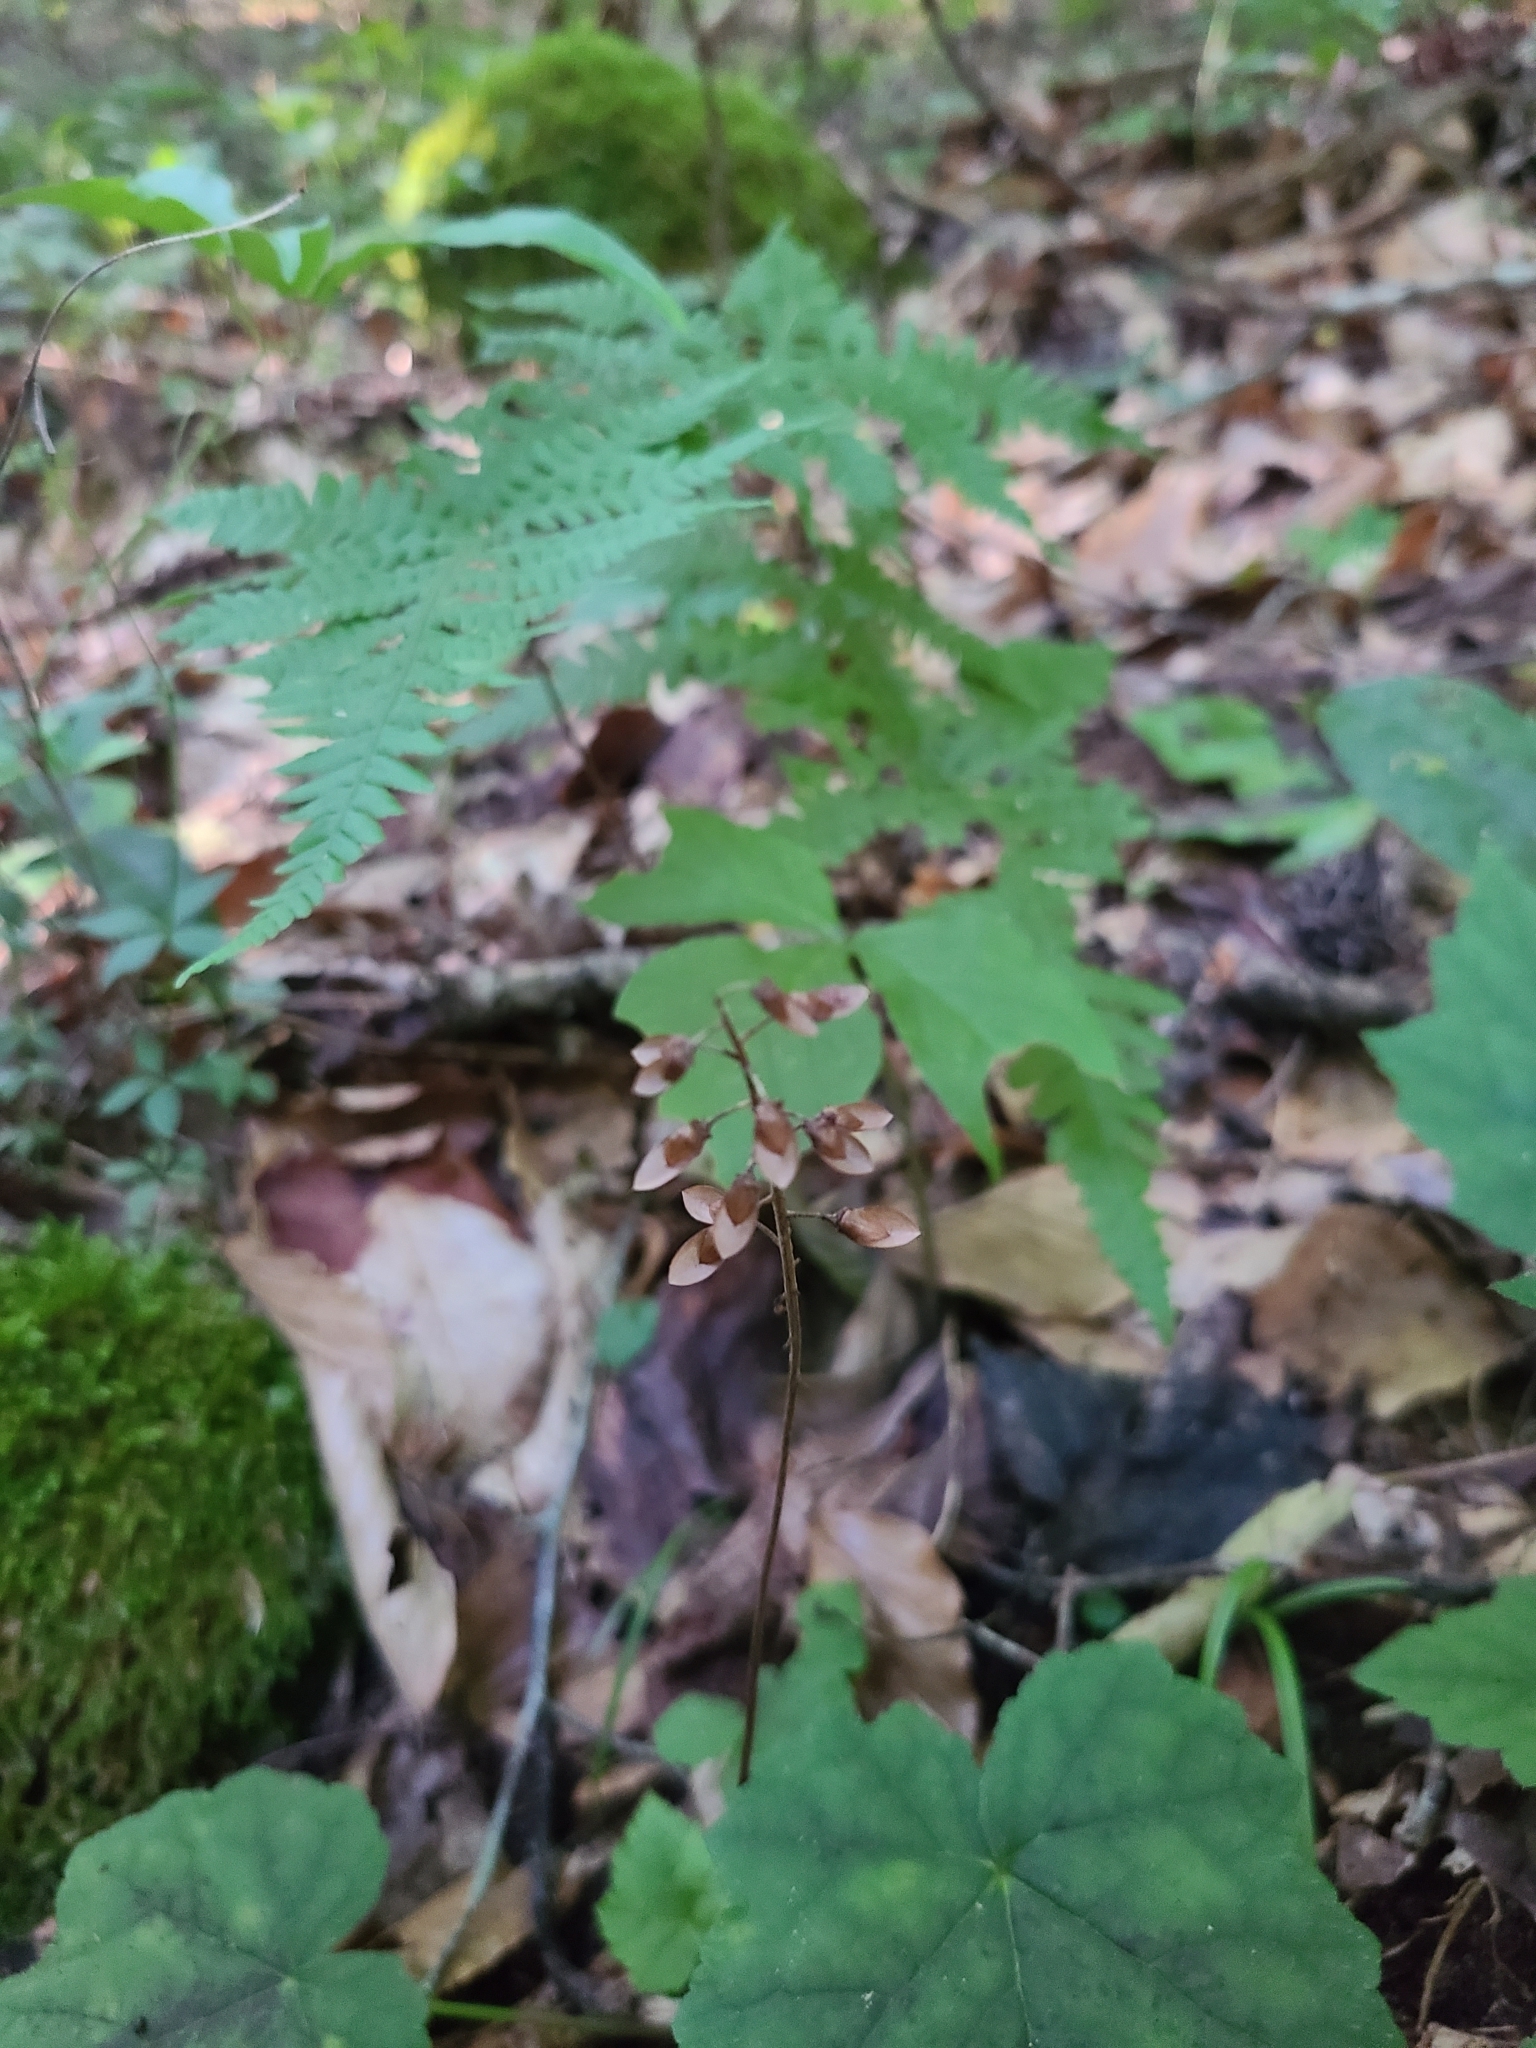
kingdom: Plantae
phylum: Tracheophyta
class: Magnoliopsida
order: Saxifragales
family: Saxifragaceae
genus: Tiarella
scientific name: Tiarella wherryi
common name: Tufted foamflower
